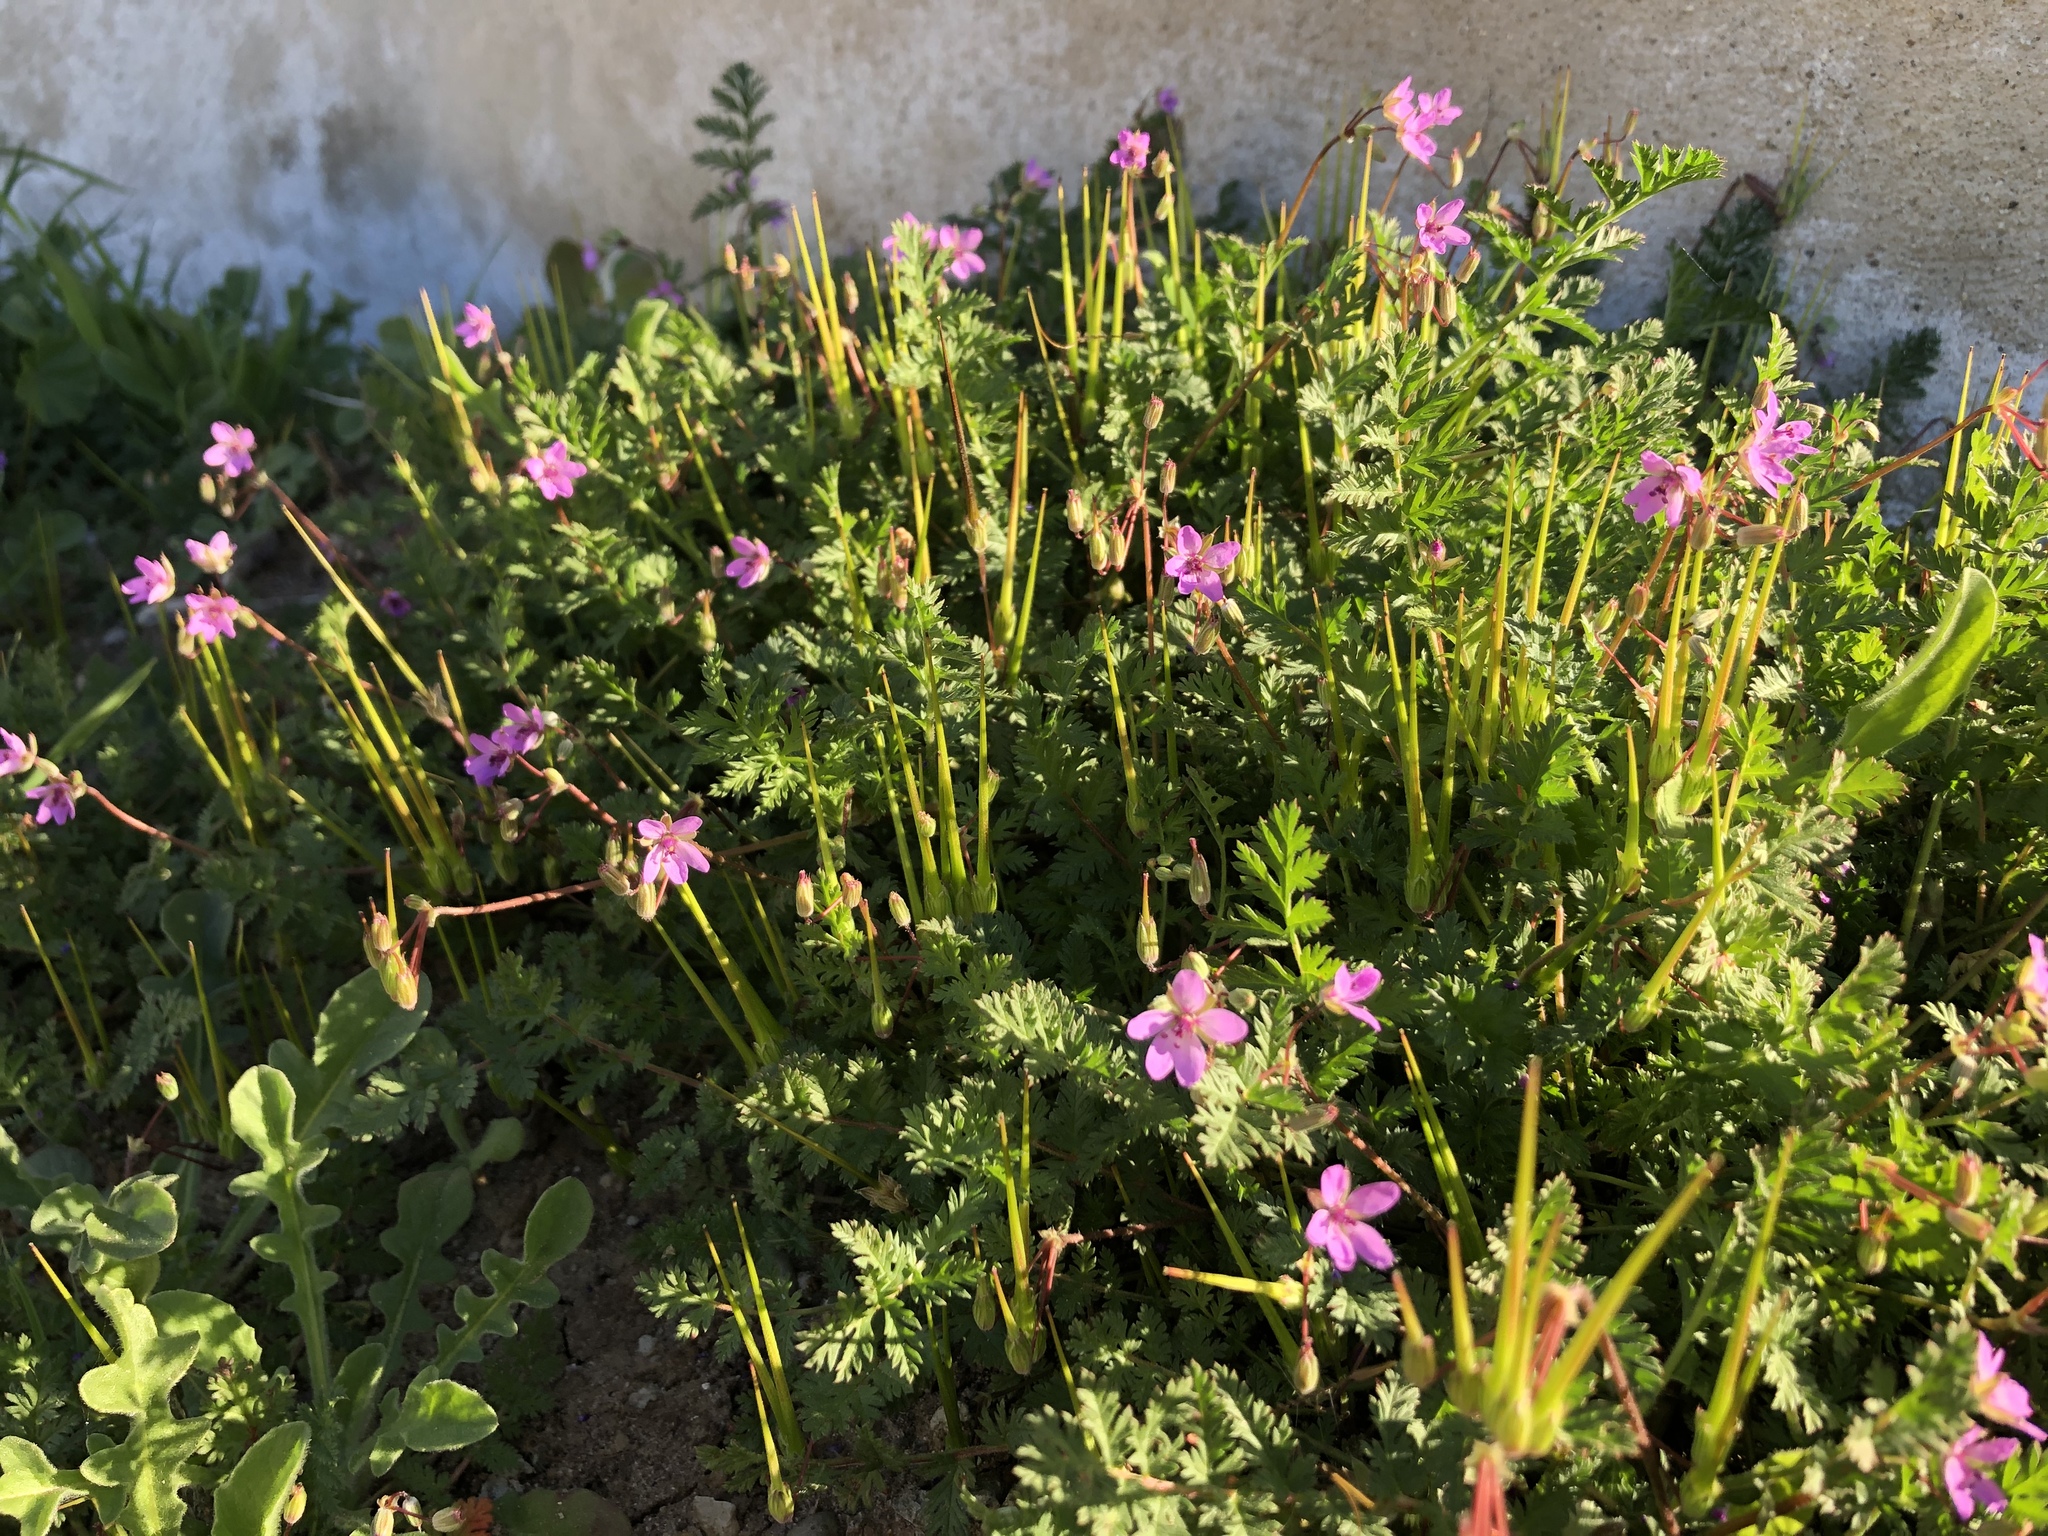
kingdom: Plantae
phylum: Tracheophyta
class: Magnoliopsida
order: Geraniales
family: Geraniaceae
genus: Erodium
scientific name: Erodium cicutarium
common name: Common stork's-bill
